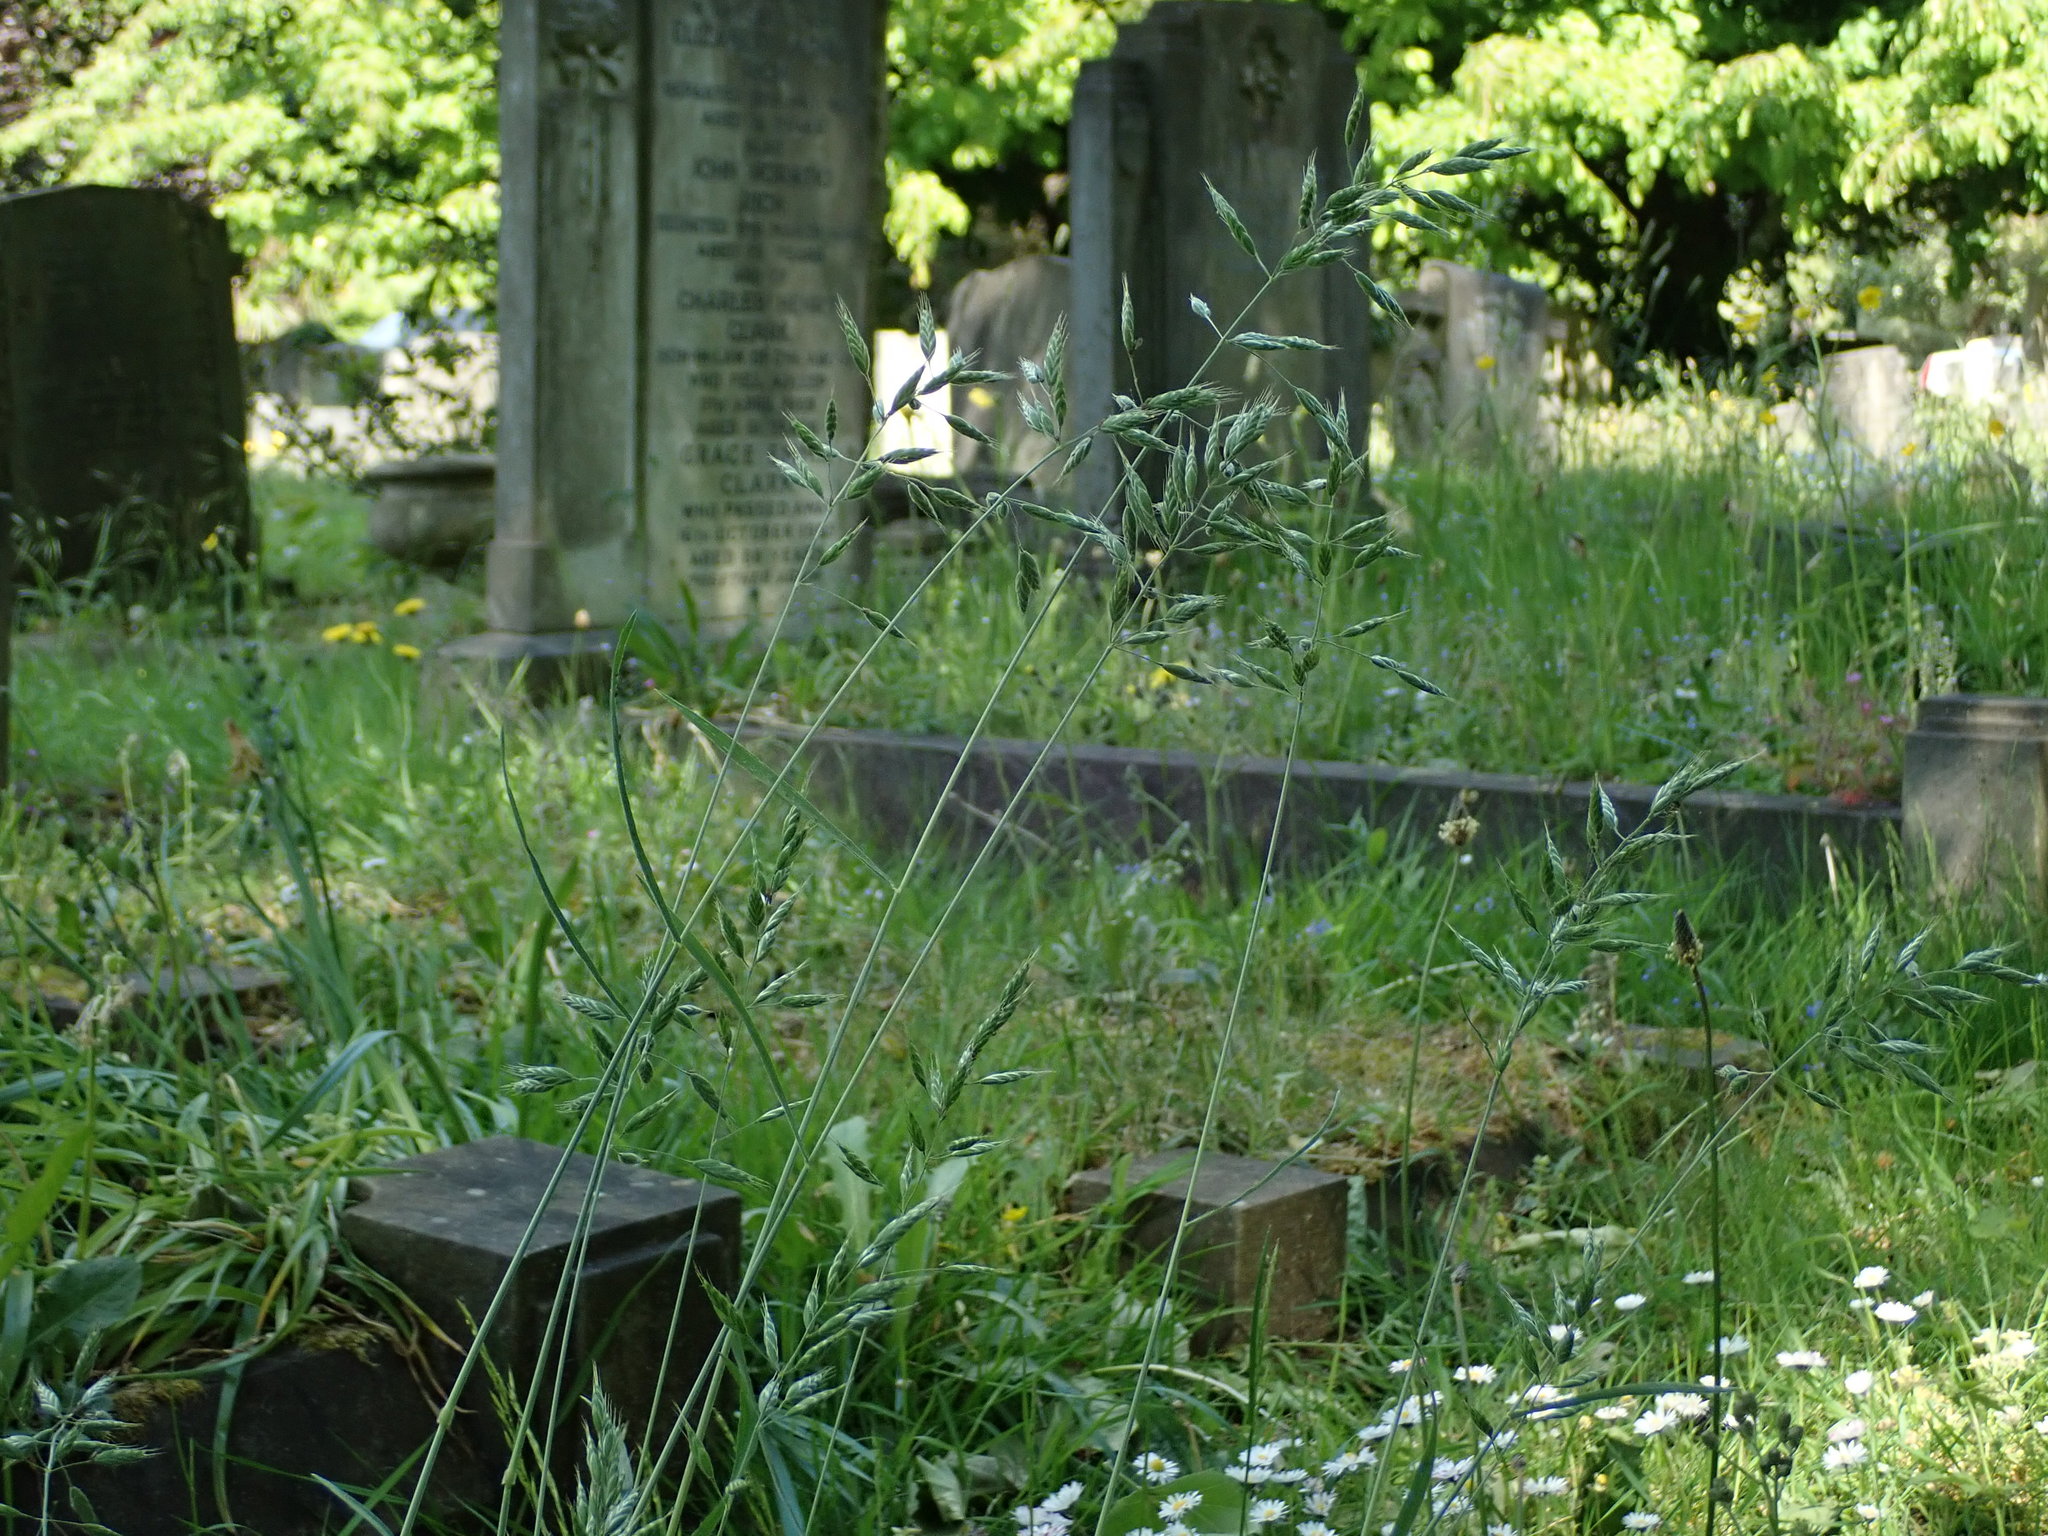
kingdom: Plantae
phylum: Tracheophyta
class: Liliopsida
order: Poales
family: Poaceae
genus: Bromus
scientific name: Bromus hordeaceus
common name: Soft brome
